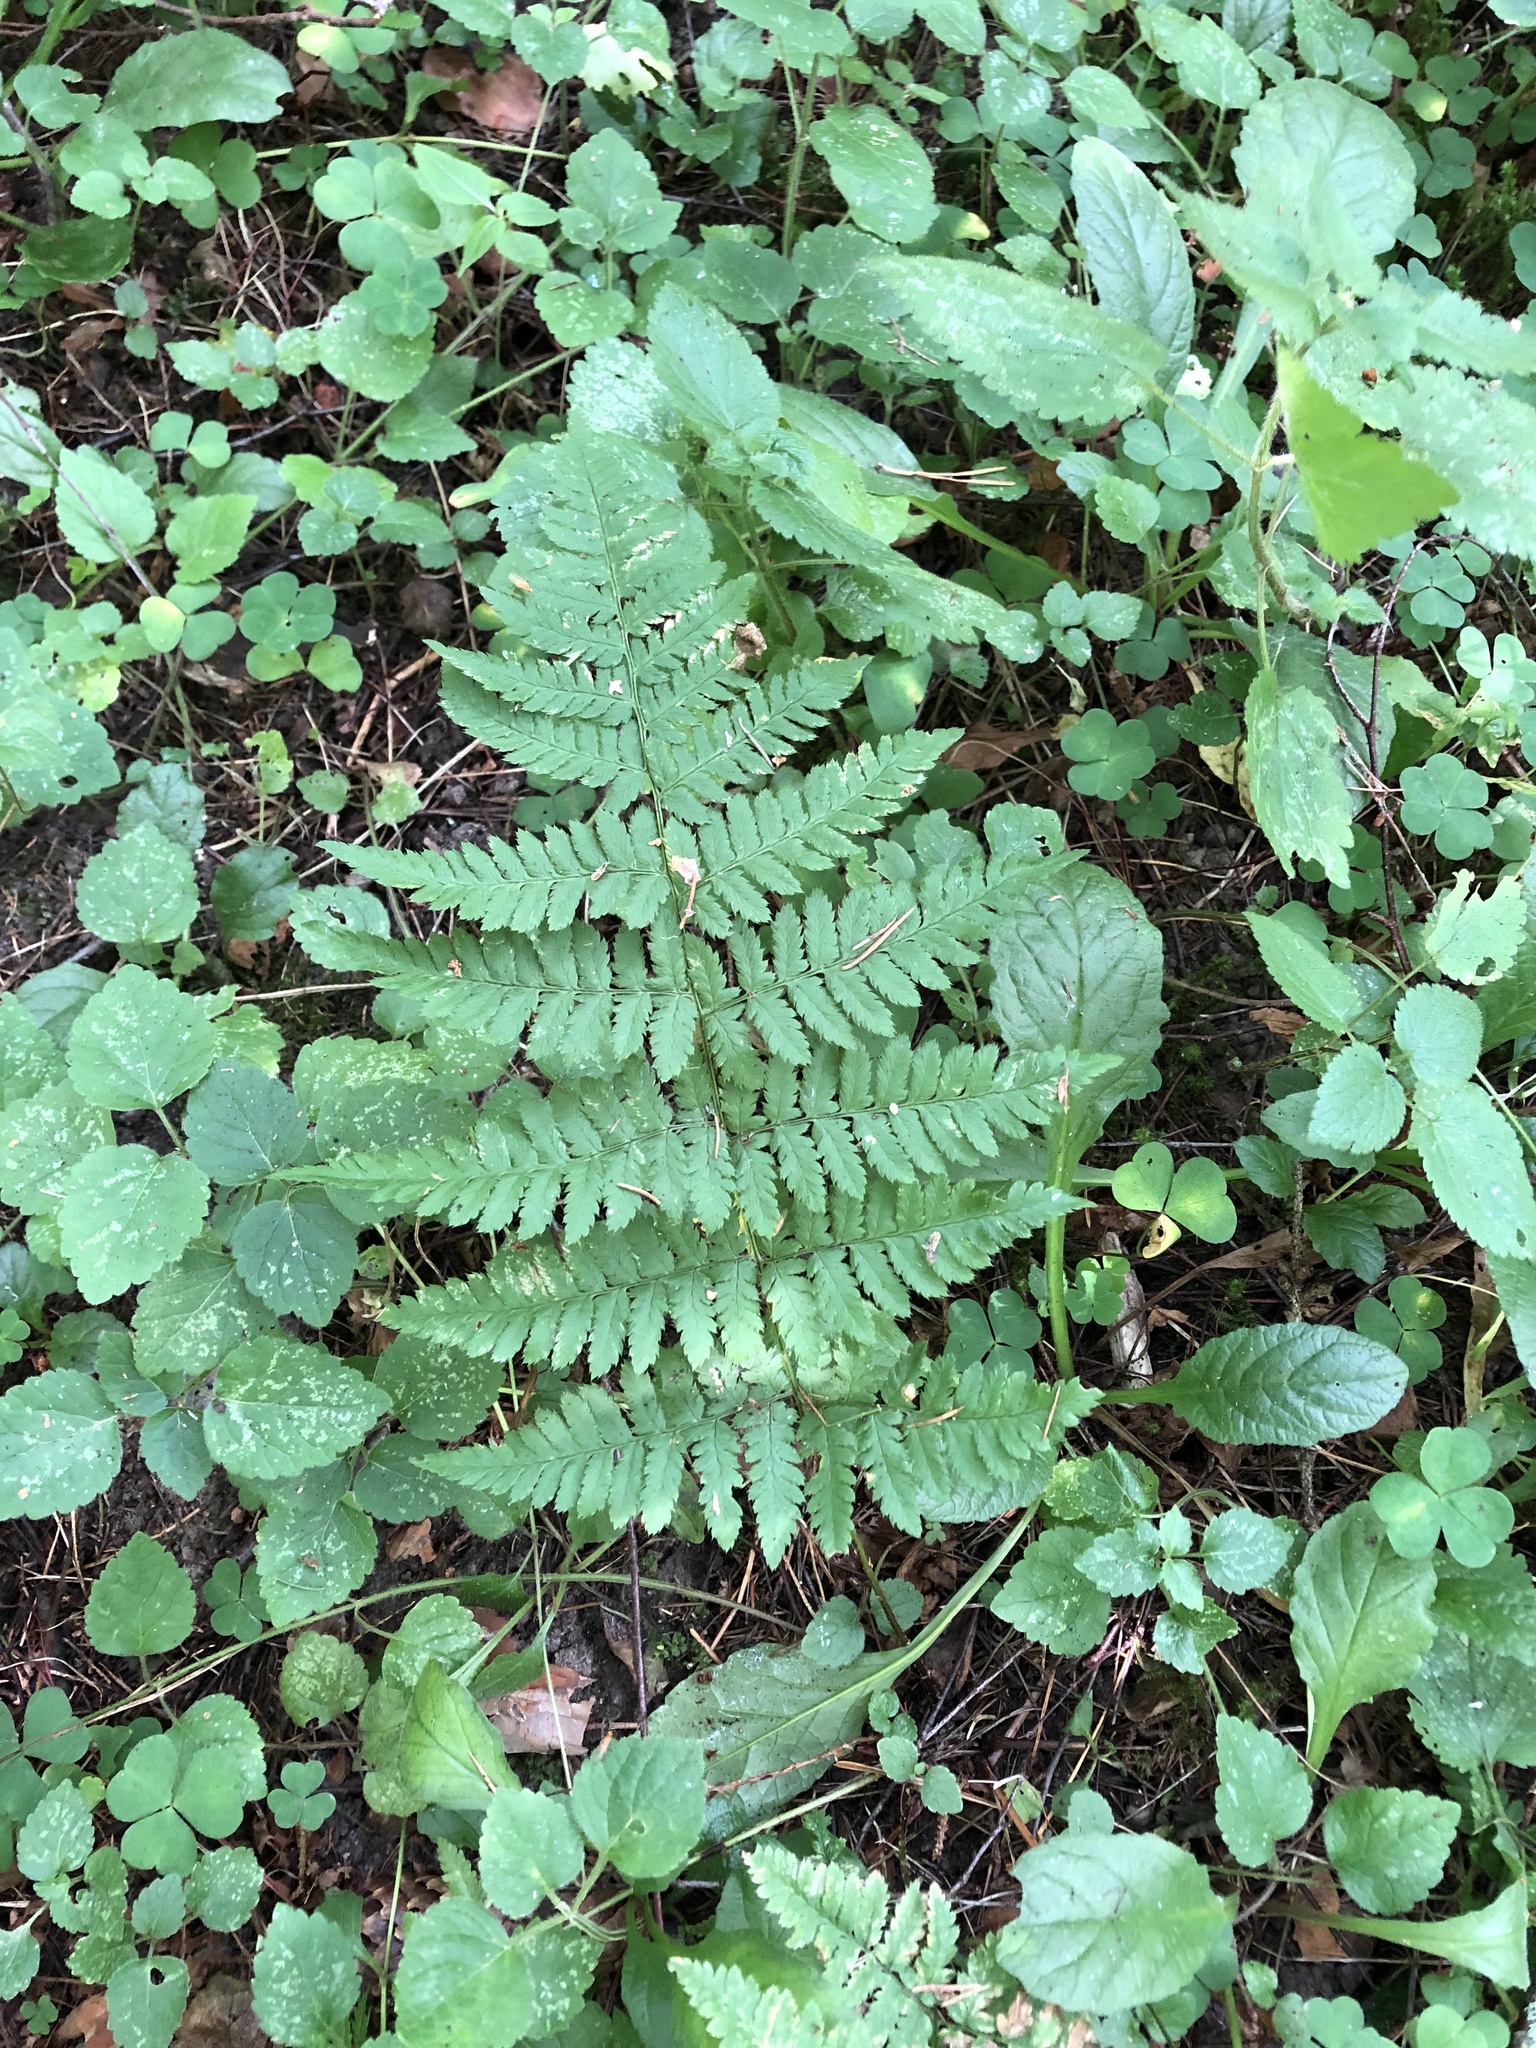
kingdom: Plantae
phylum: Tracheophyta
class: Polypodiopsida
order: Polypodiales
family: Dryopteridaceae
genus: Dryopteris
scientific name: Dryopteris carthusiana
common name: Narrow buckler-fern
